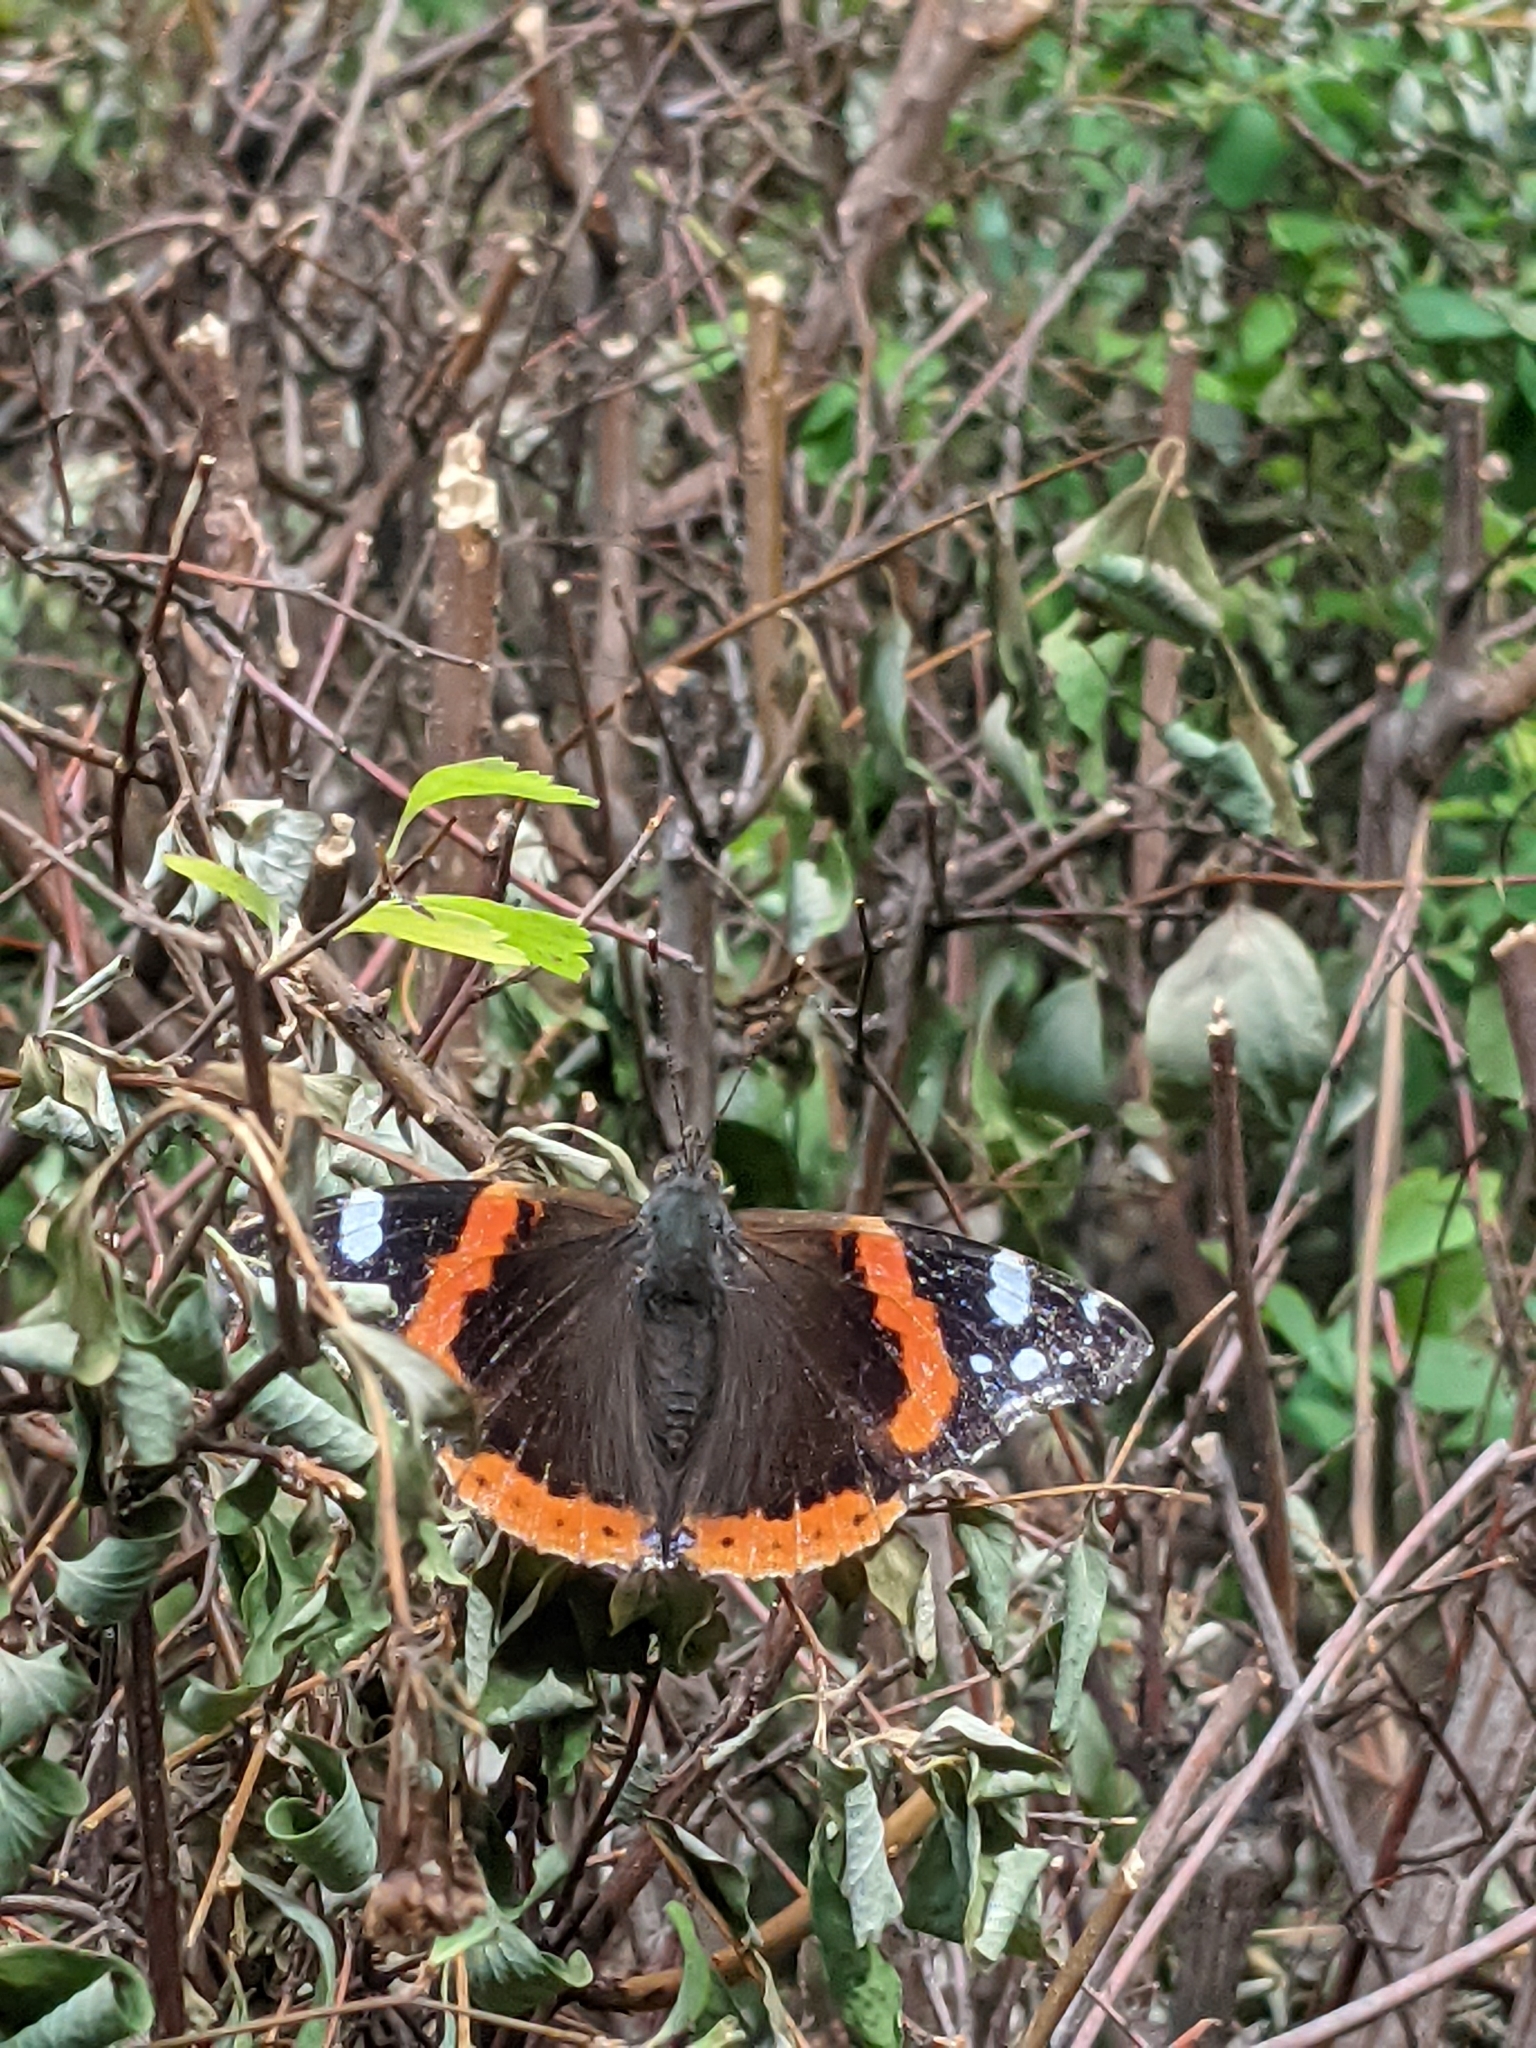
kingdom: Animalia
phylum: Arthropoda
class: Insecta
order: Lepidoptera
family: Nymphalidae
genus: Vanessa
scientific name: Vanessa atalanta
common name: Red admiral
